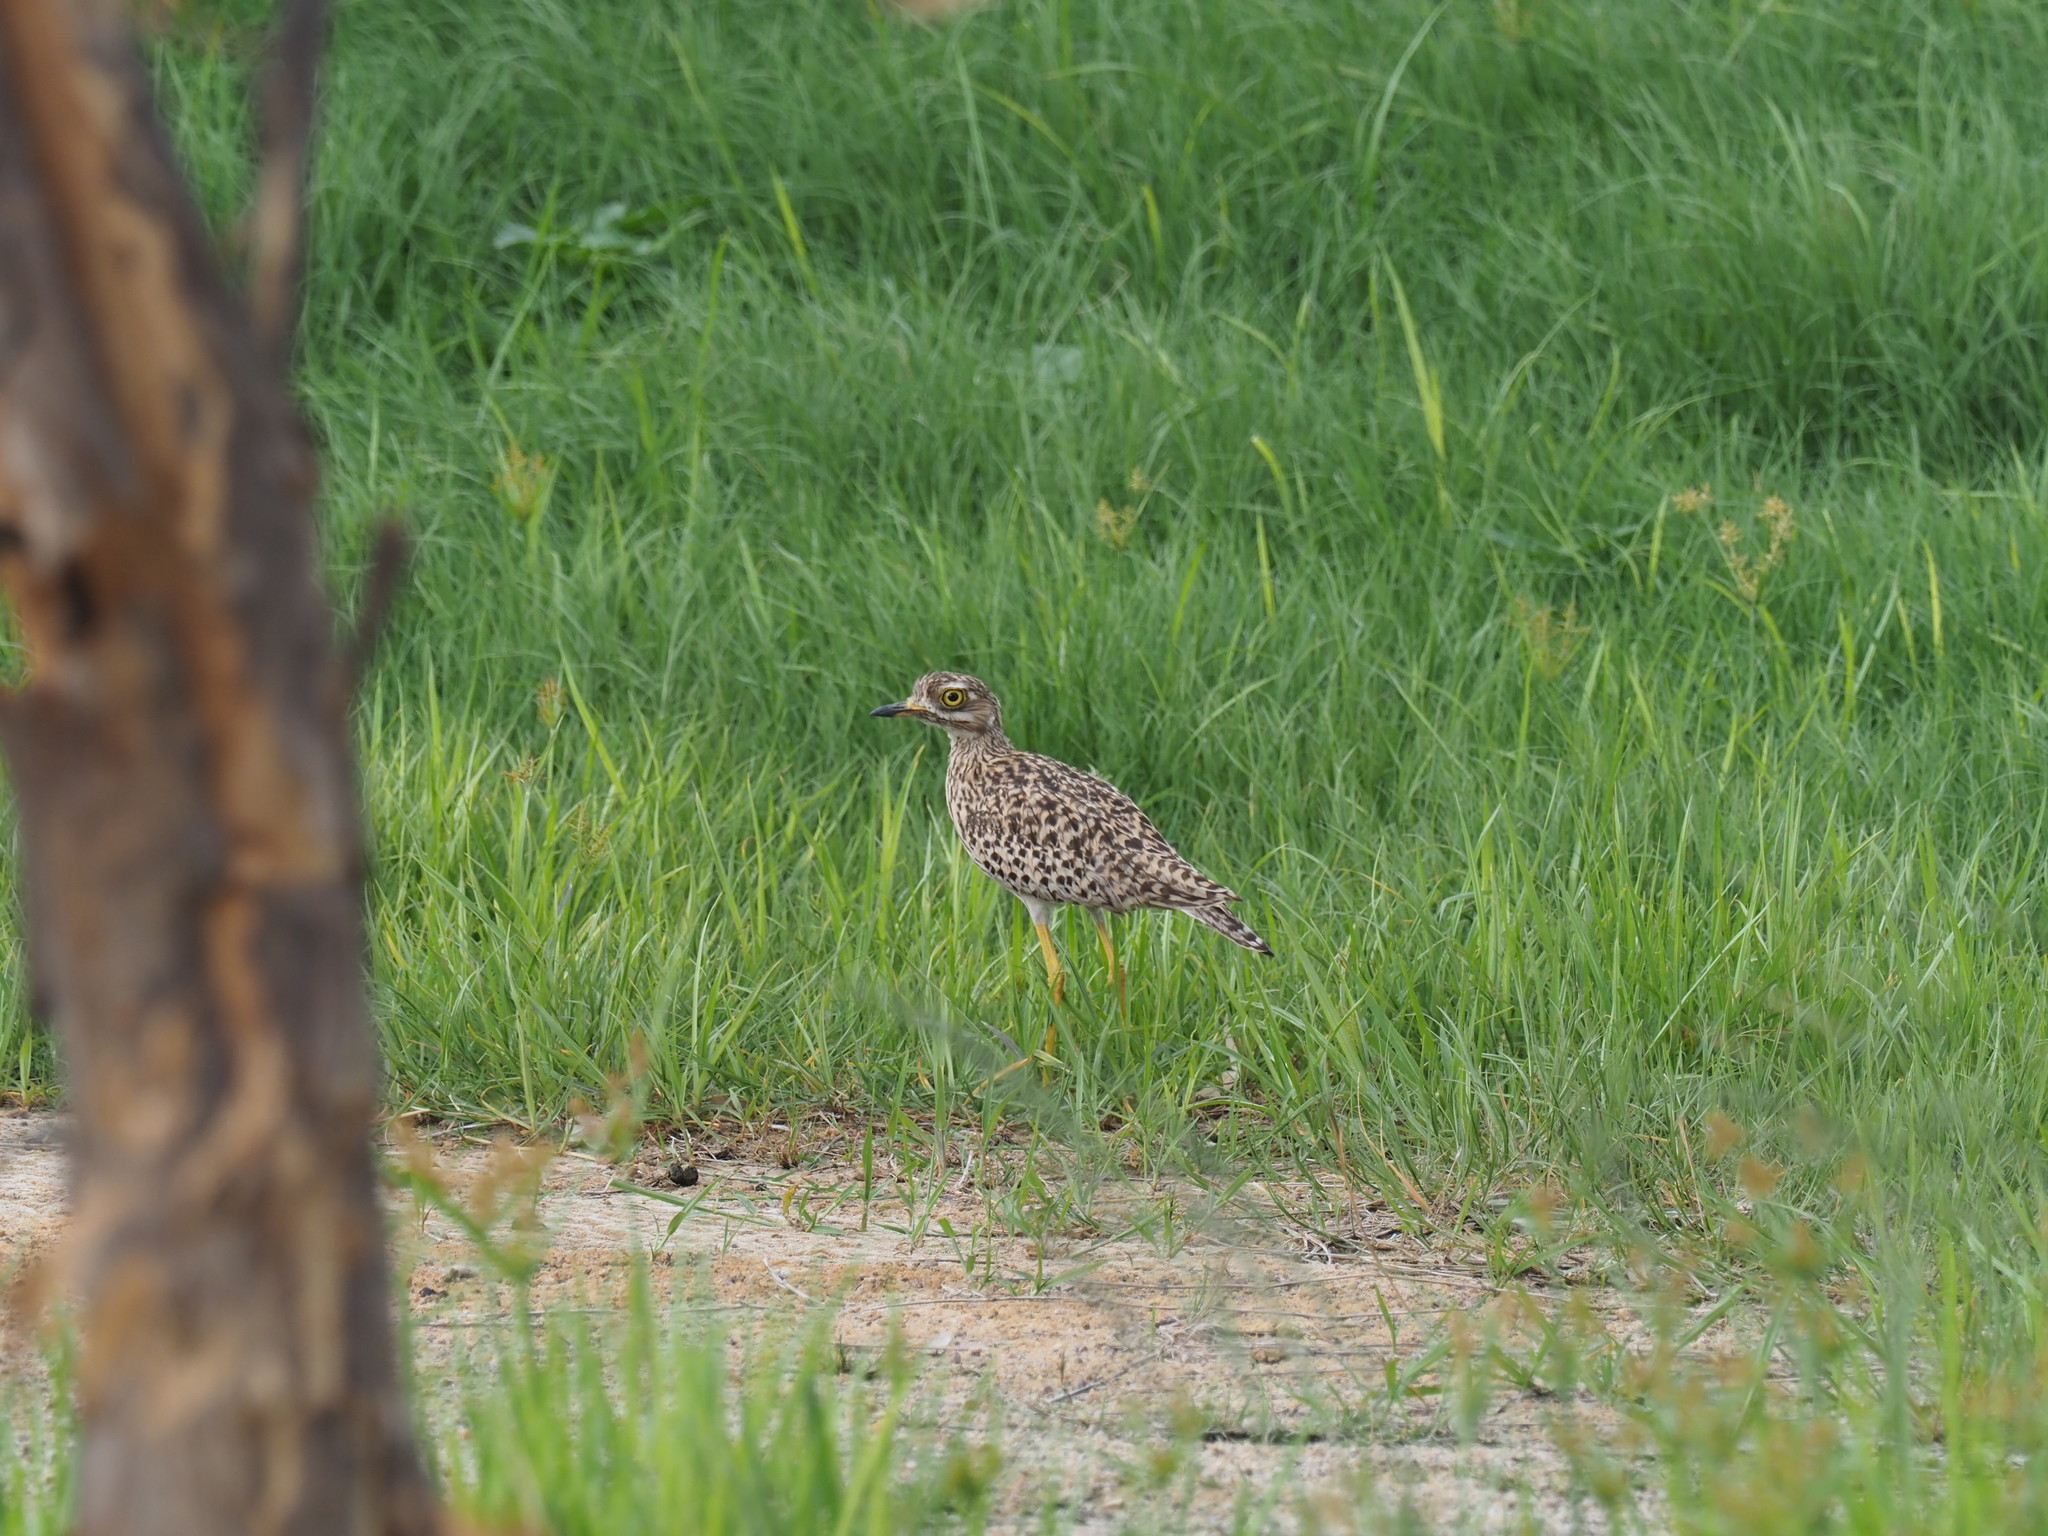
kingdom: Animalia
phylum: Chordata
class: Aves
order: Charadriiformes
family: Burhinidae
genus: Burhinus
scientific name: Burhinus capensis
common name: Spotted thick-knee
